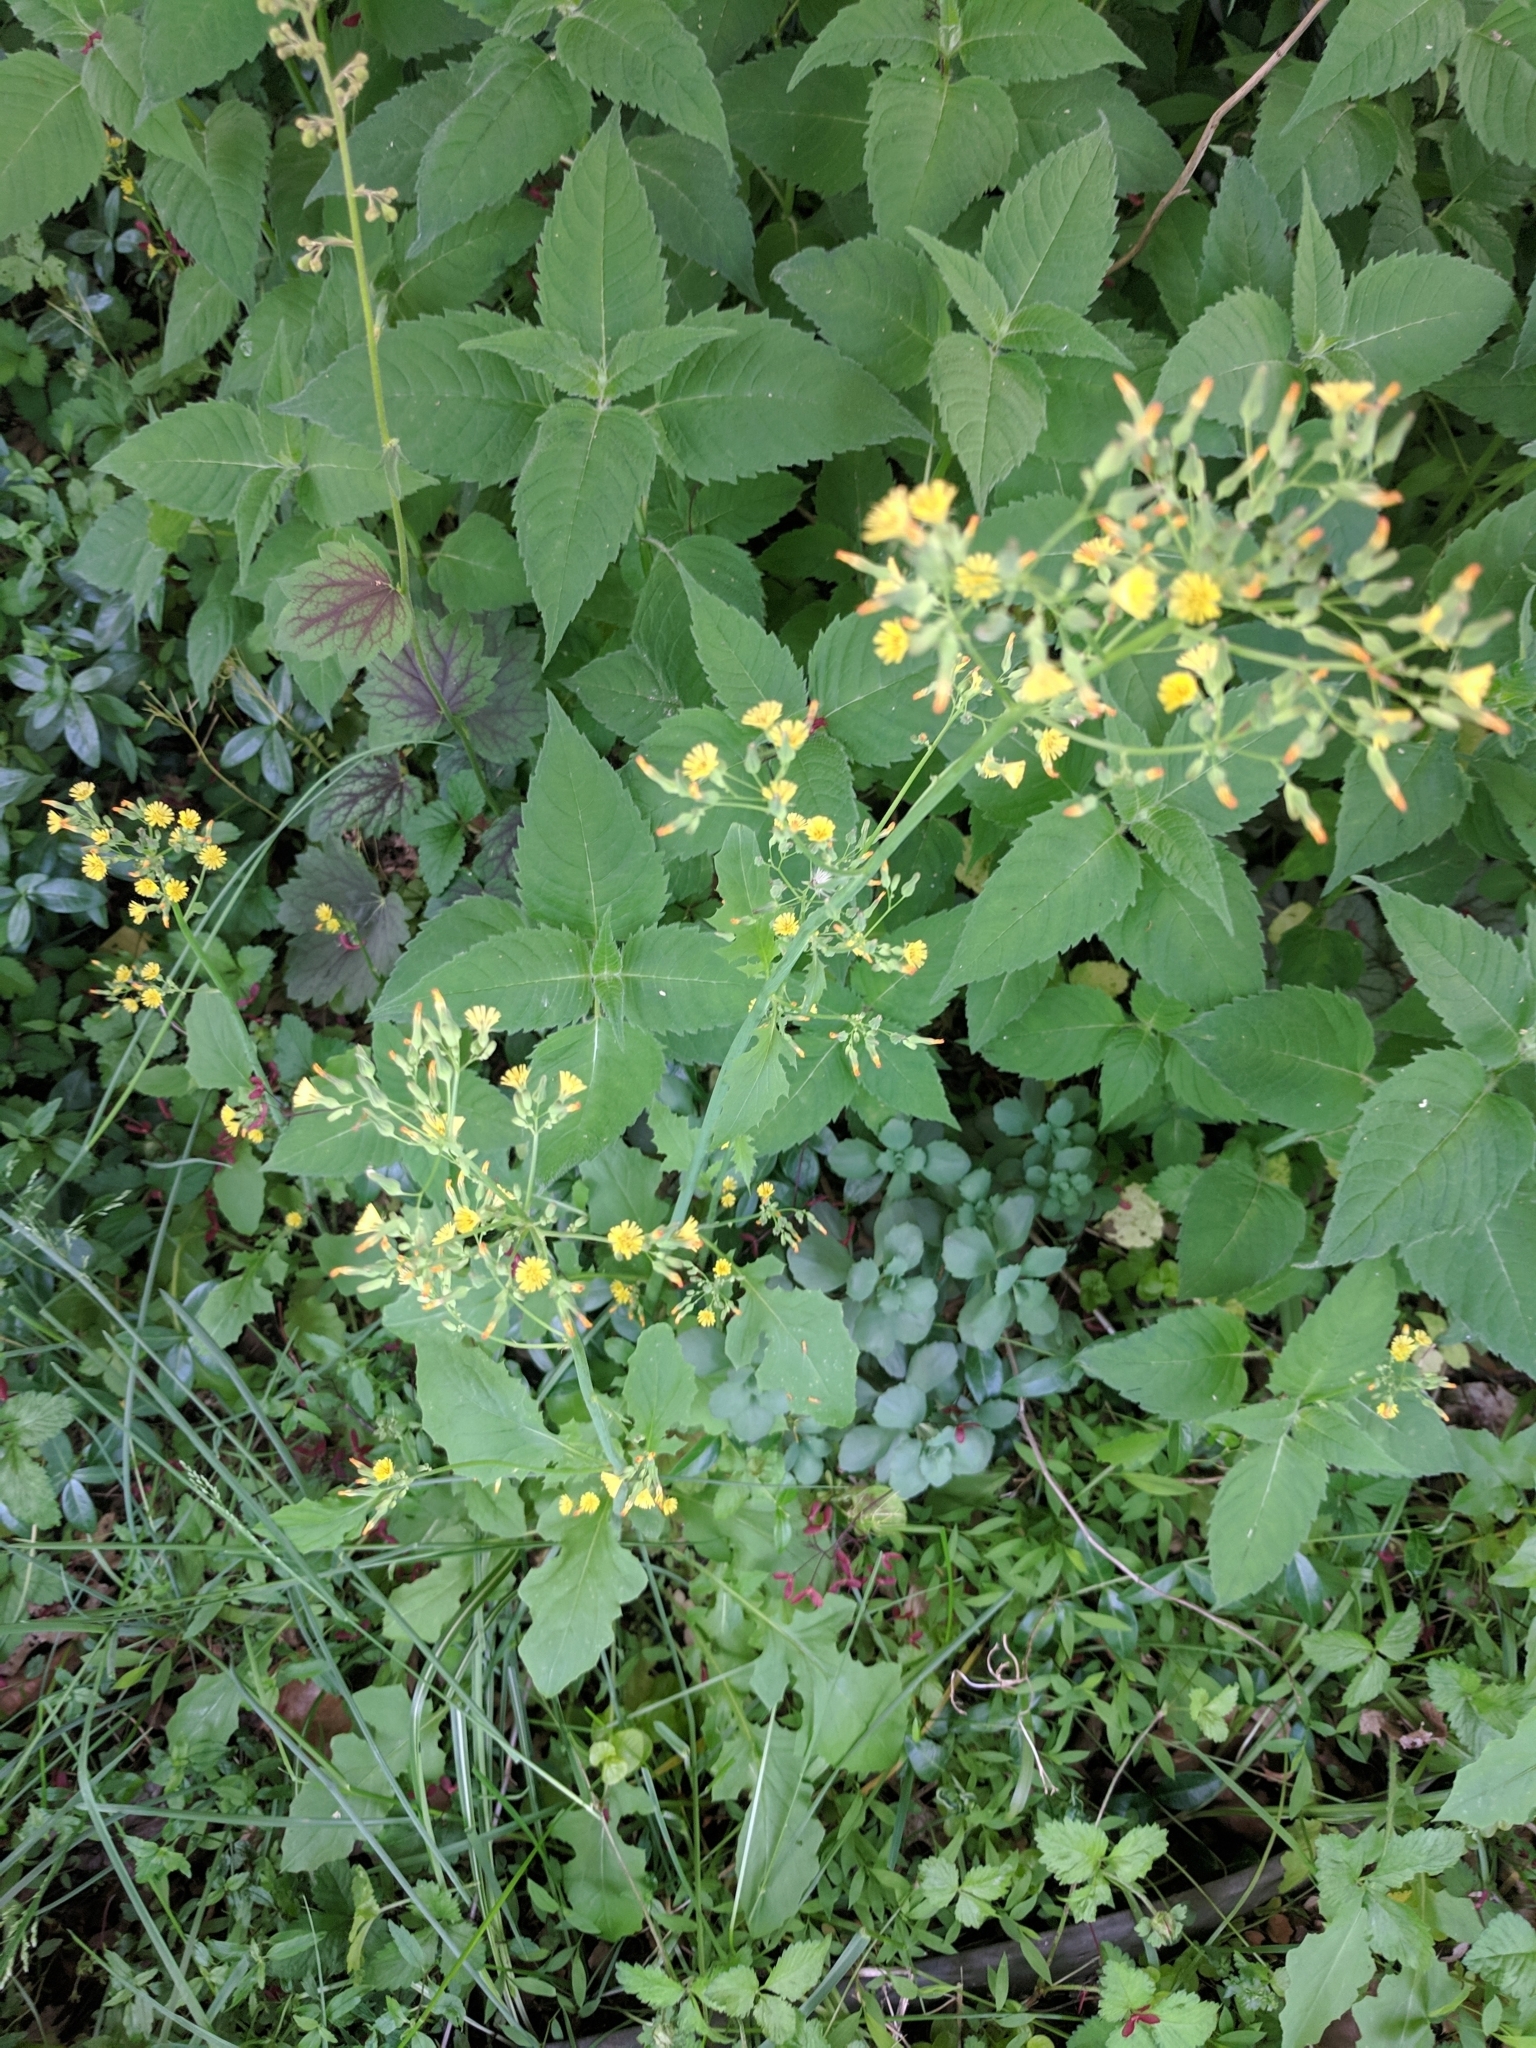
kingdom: Plantae
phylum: Tracheophyta
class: Magnoliopsida
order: Asterales
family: Asteraceae
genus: Youngia
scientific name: Youngia japonica
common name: Oriental false hawksbeard
